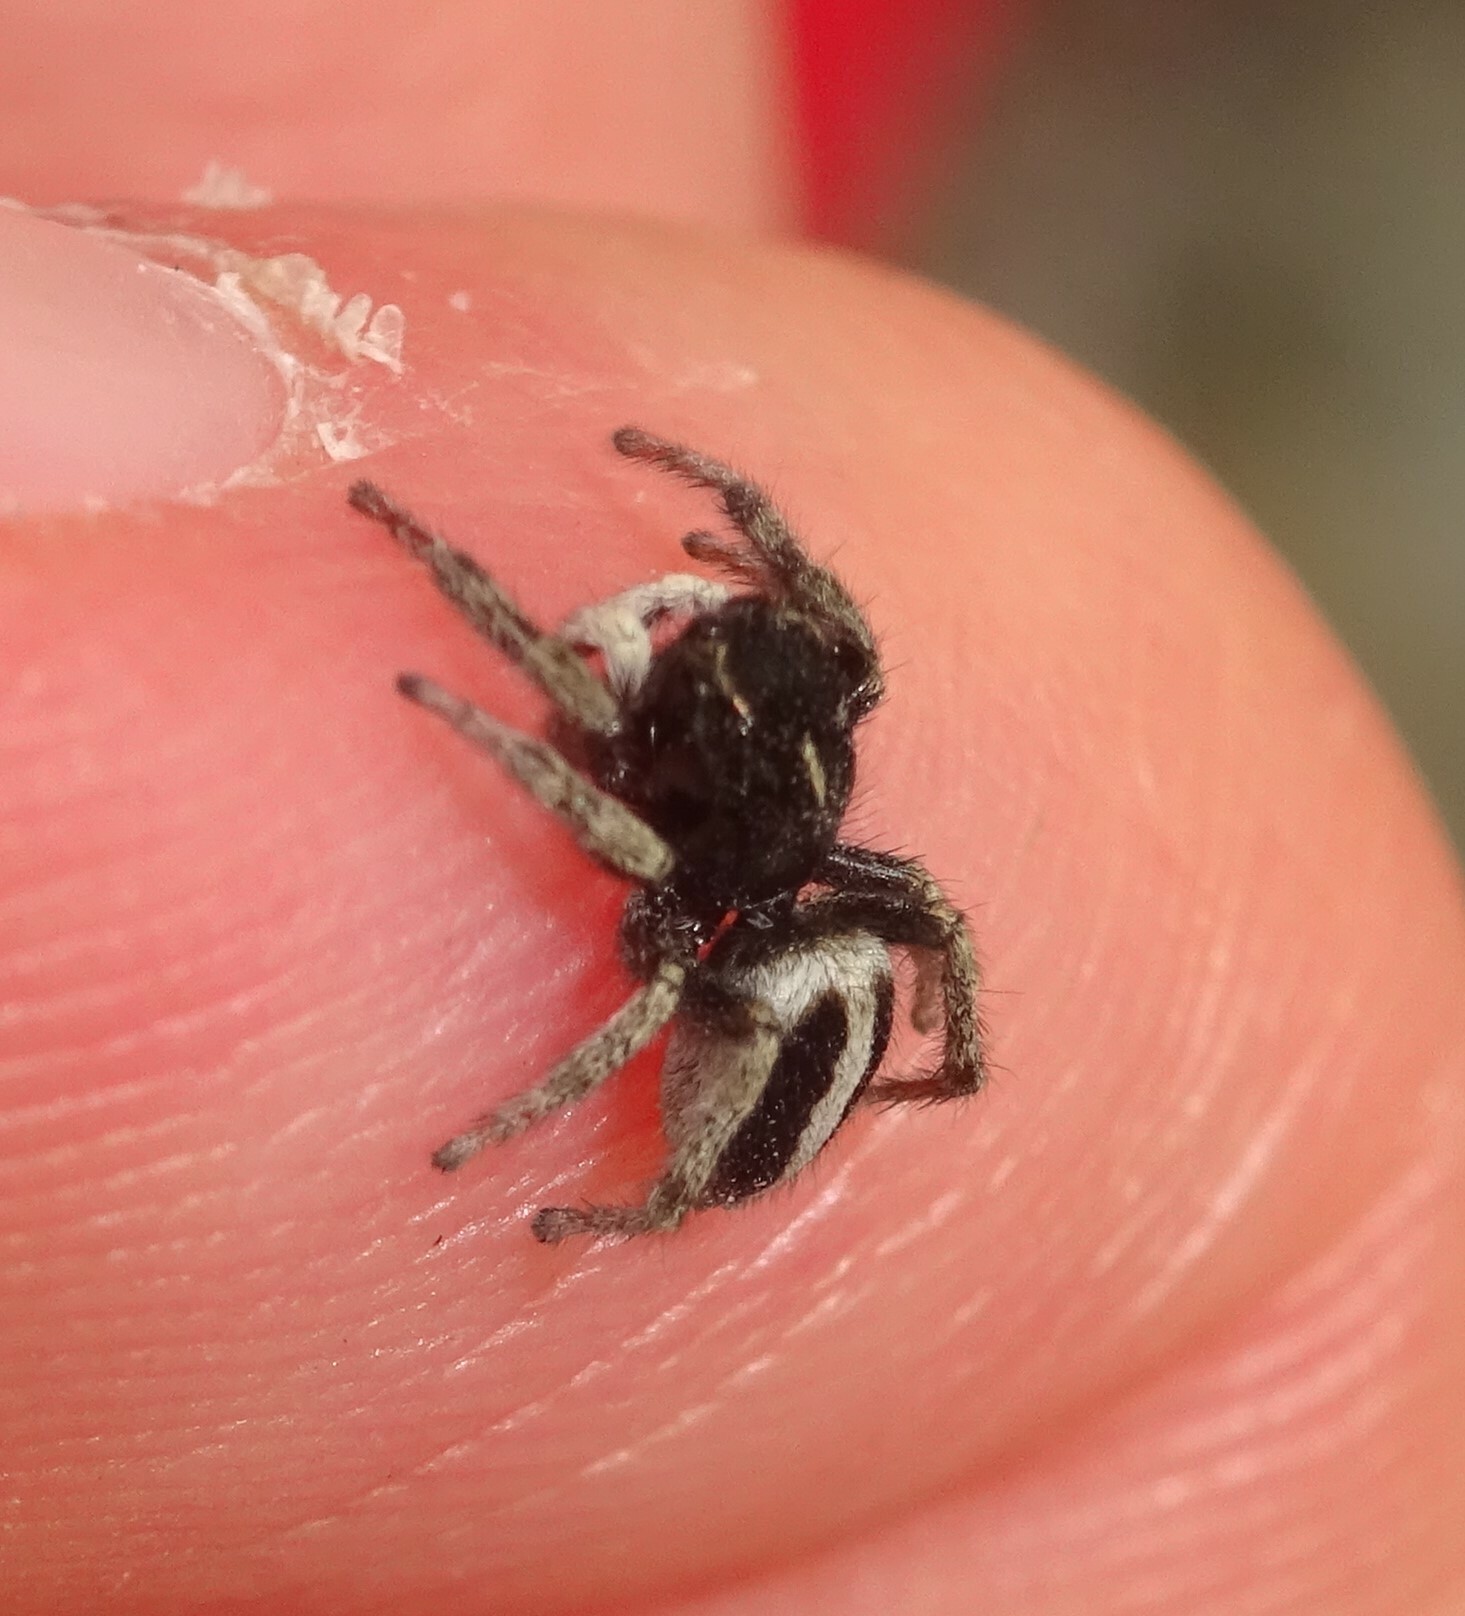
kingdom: Animalia
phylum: Arthropoda
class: Arachnida
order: Araneae
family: Salticidae
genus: Attulus
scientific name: Attulus longipes
